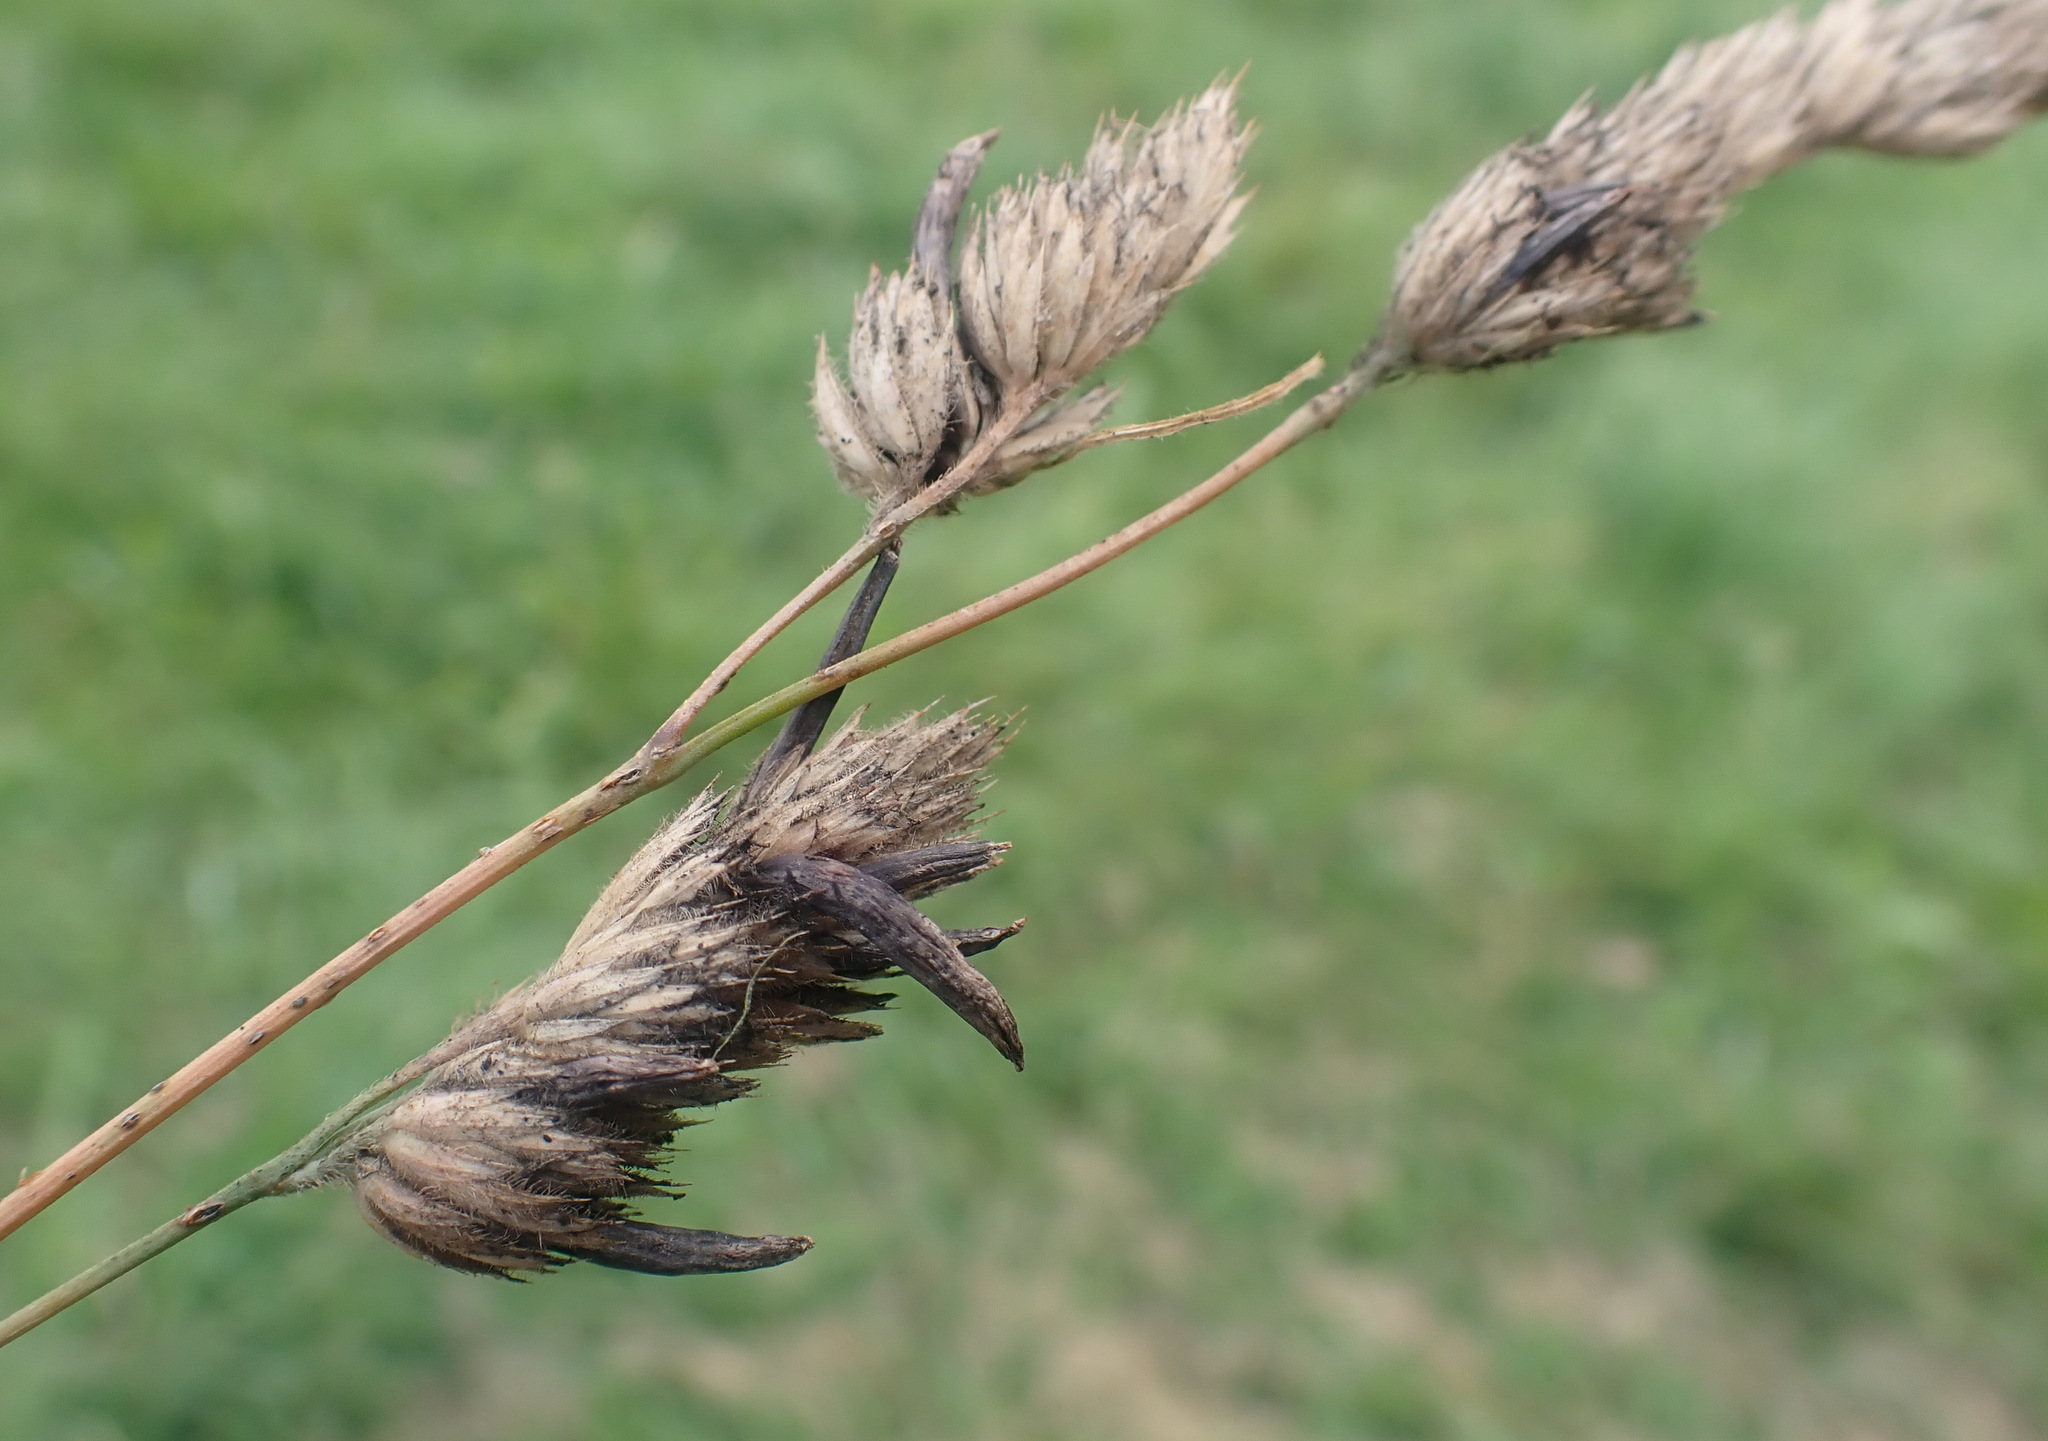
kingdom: Fungi
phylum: Ascomycota
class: Sordariomycetes
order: Hypocreales
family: Clavicipitaceae
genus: Claviceps
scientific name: Claviceps purpurea
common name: Rye ergot
